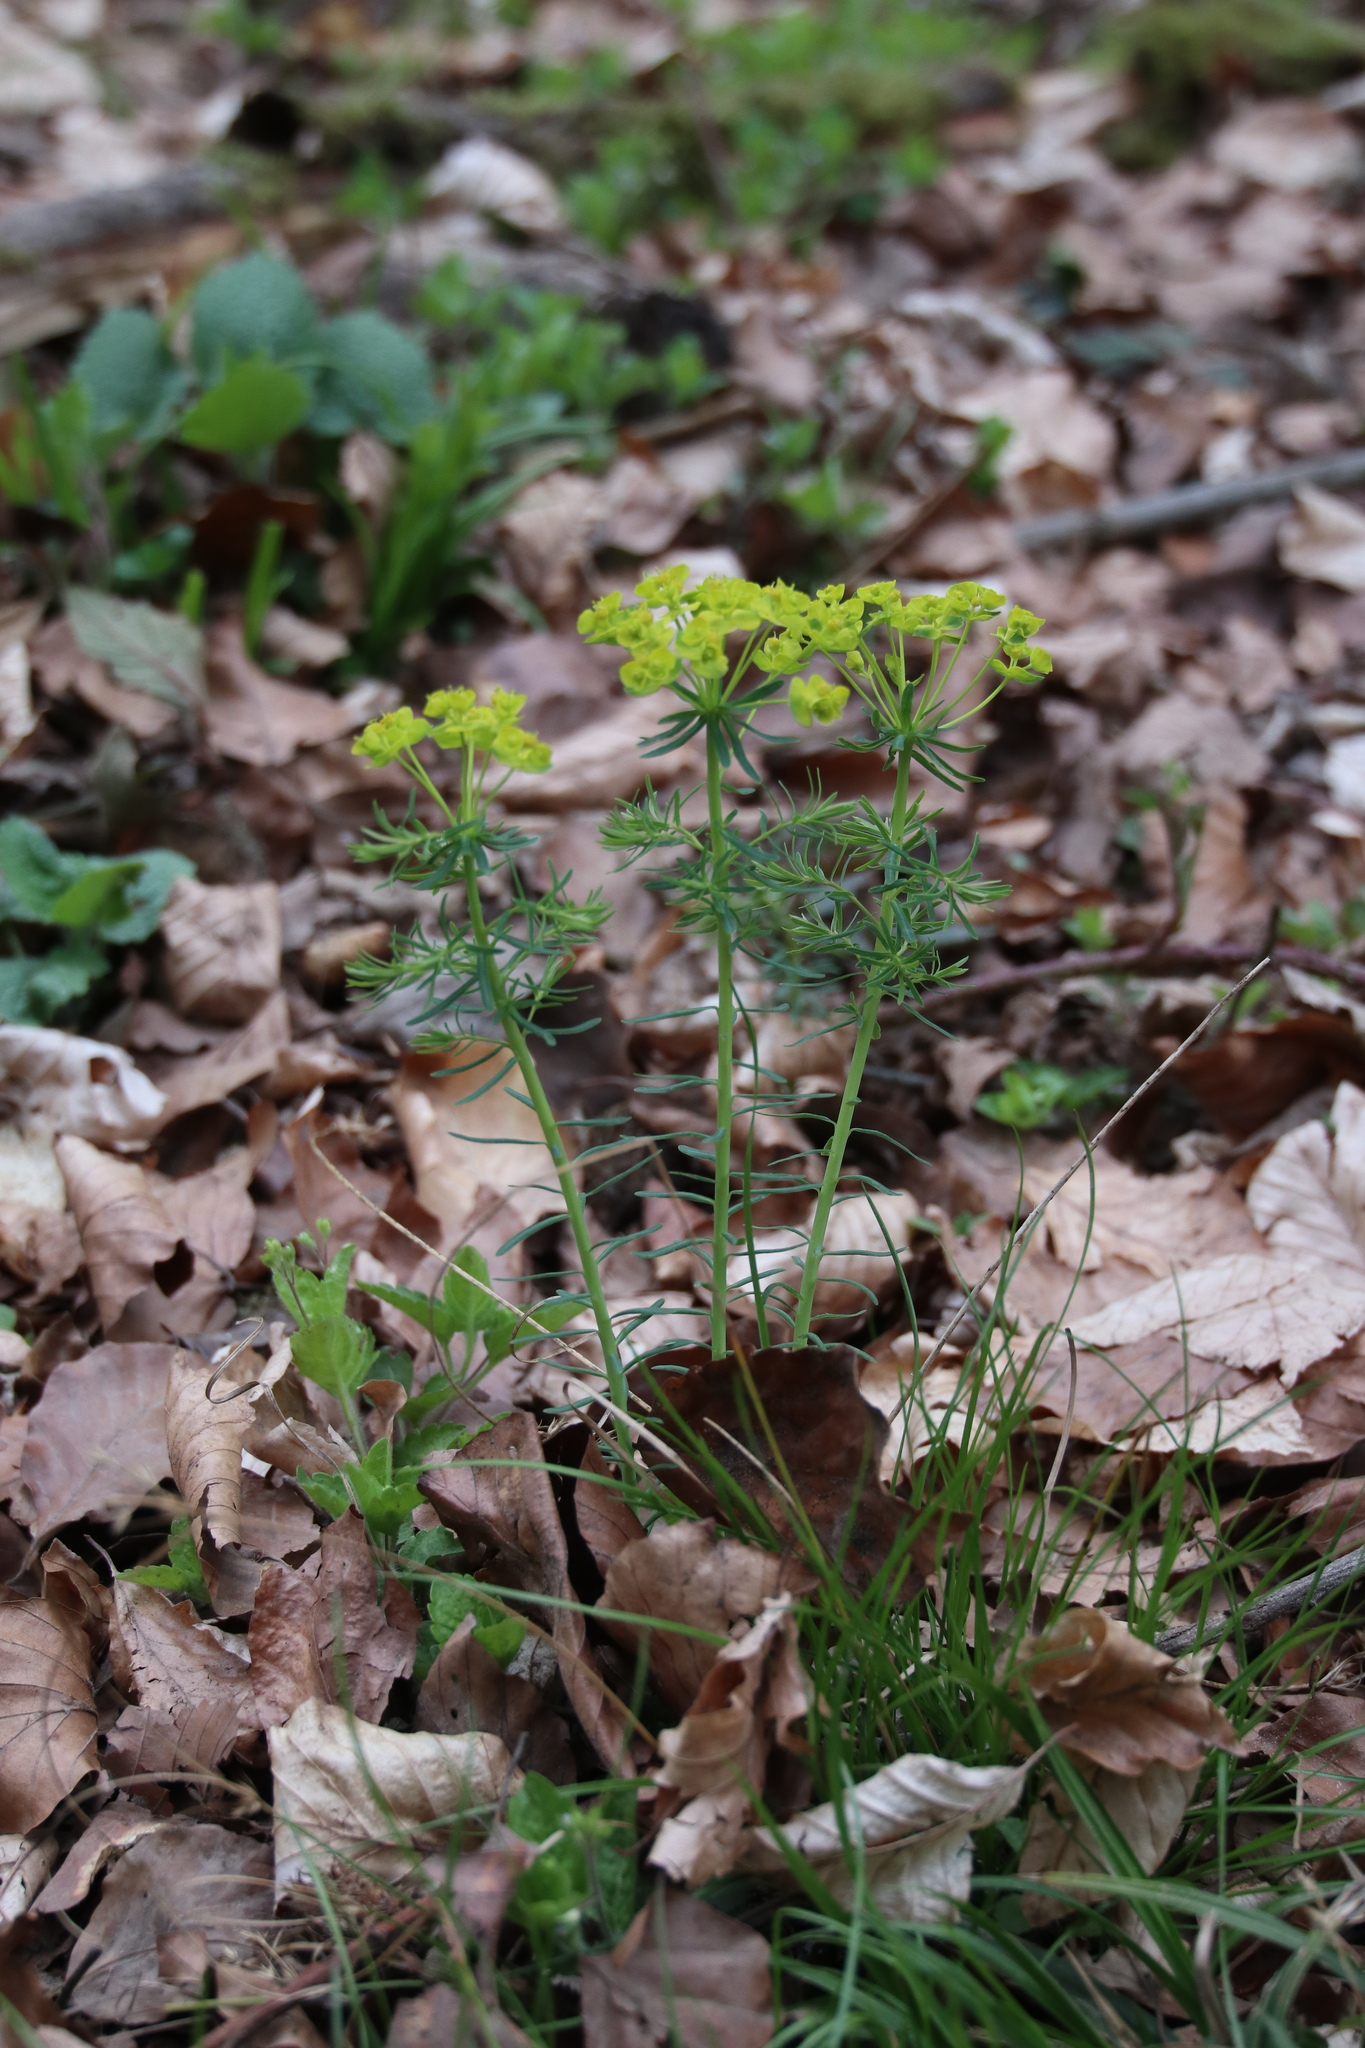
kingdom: Plantae
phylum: Tracheophyta
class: Magnoliopsida
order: Malpighiales
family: Euphorbiaceae
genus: Euphorbia
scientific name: Euphorbia cyparissias
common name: Cypress spurge
